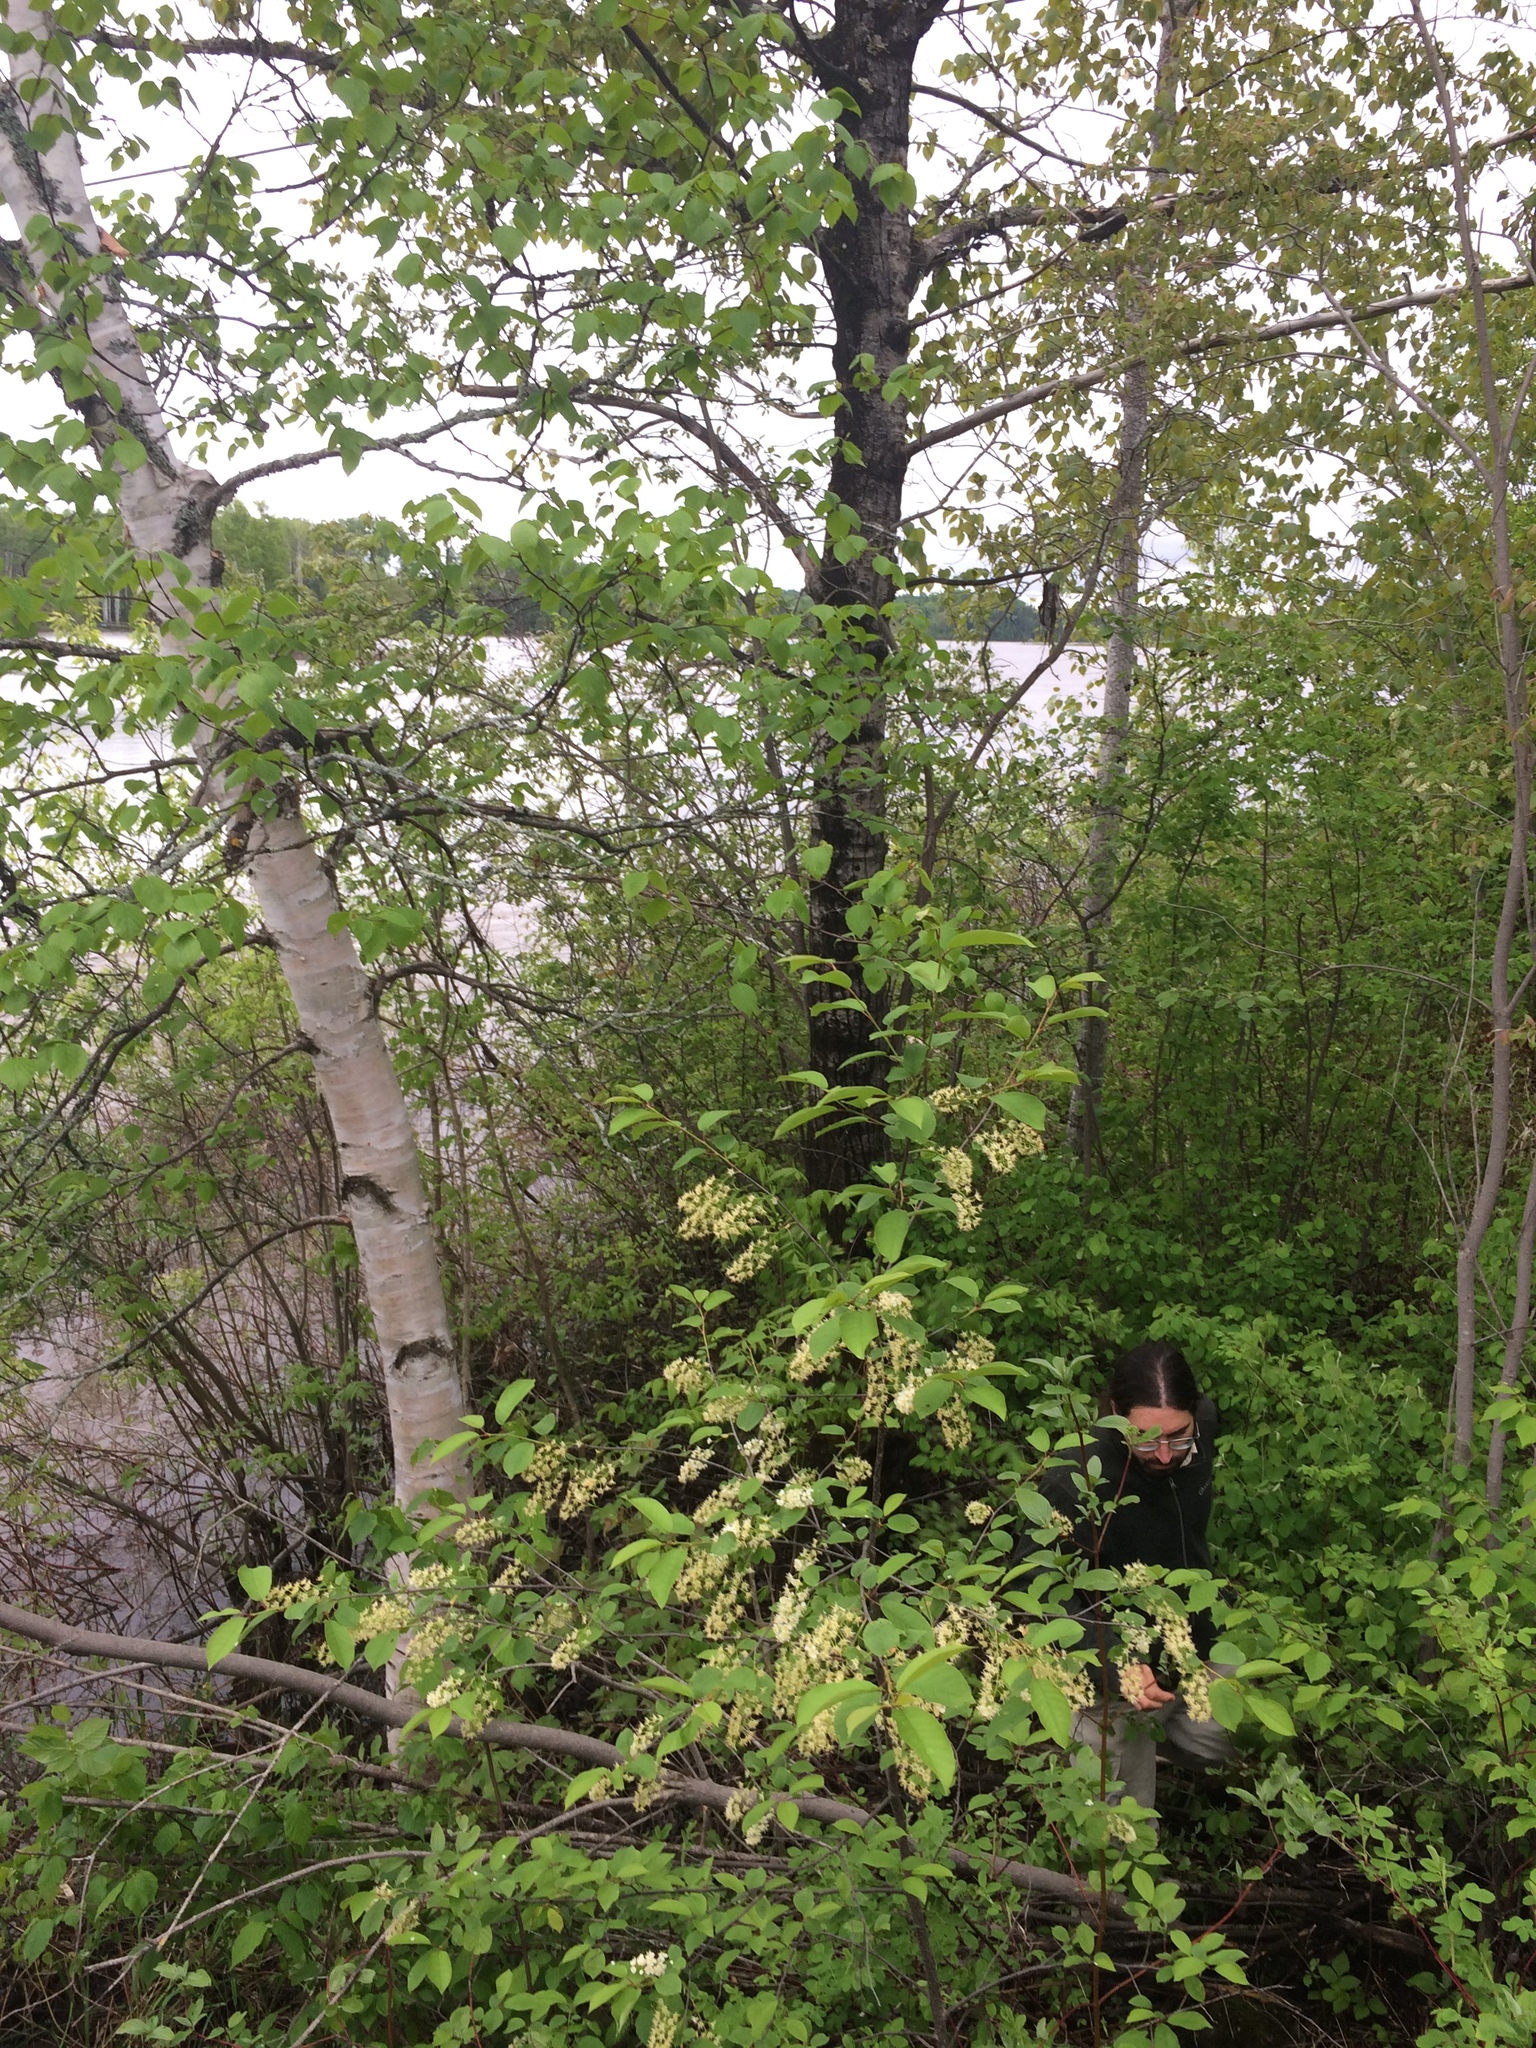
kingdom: Plantae
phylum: Tracheophyta
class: Magnoliopsida
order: Fagales
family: Betulaceae
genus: Betula
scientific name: Betula papyrifera
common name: Paper birch
